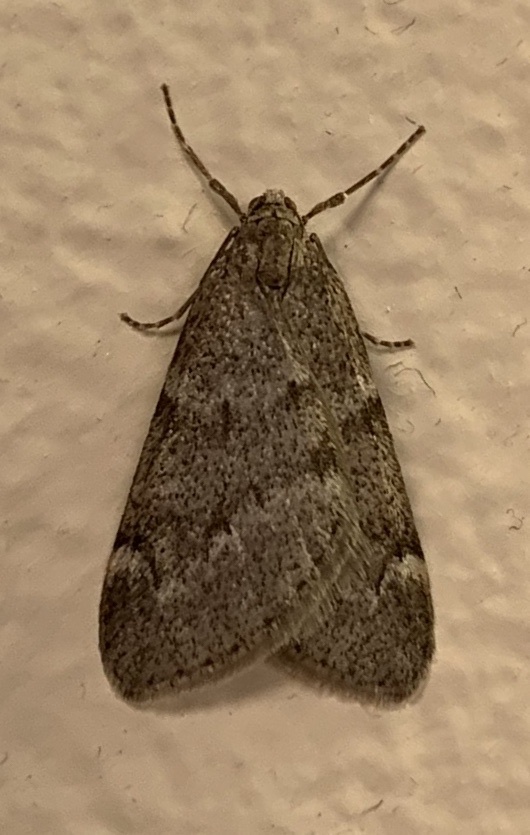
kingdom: Animalia
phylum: Arthropoda
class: Insecta
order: Lepidoptera
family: Geometridae
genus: Alsophila
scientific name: Alsophila pometaria
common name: Fall cankerworm
